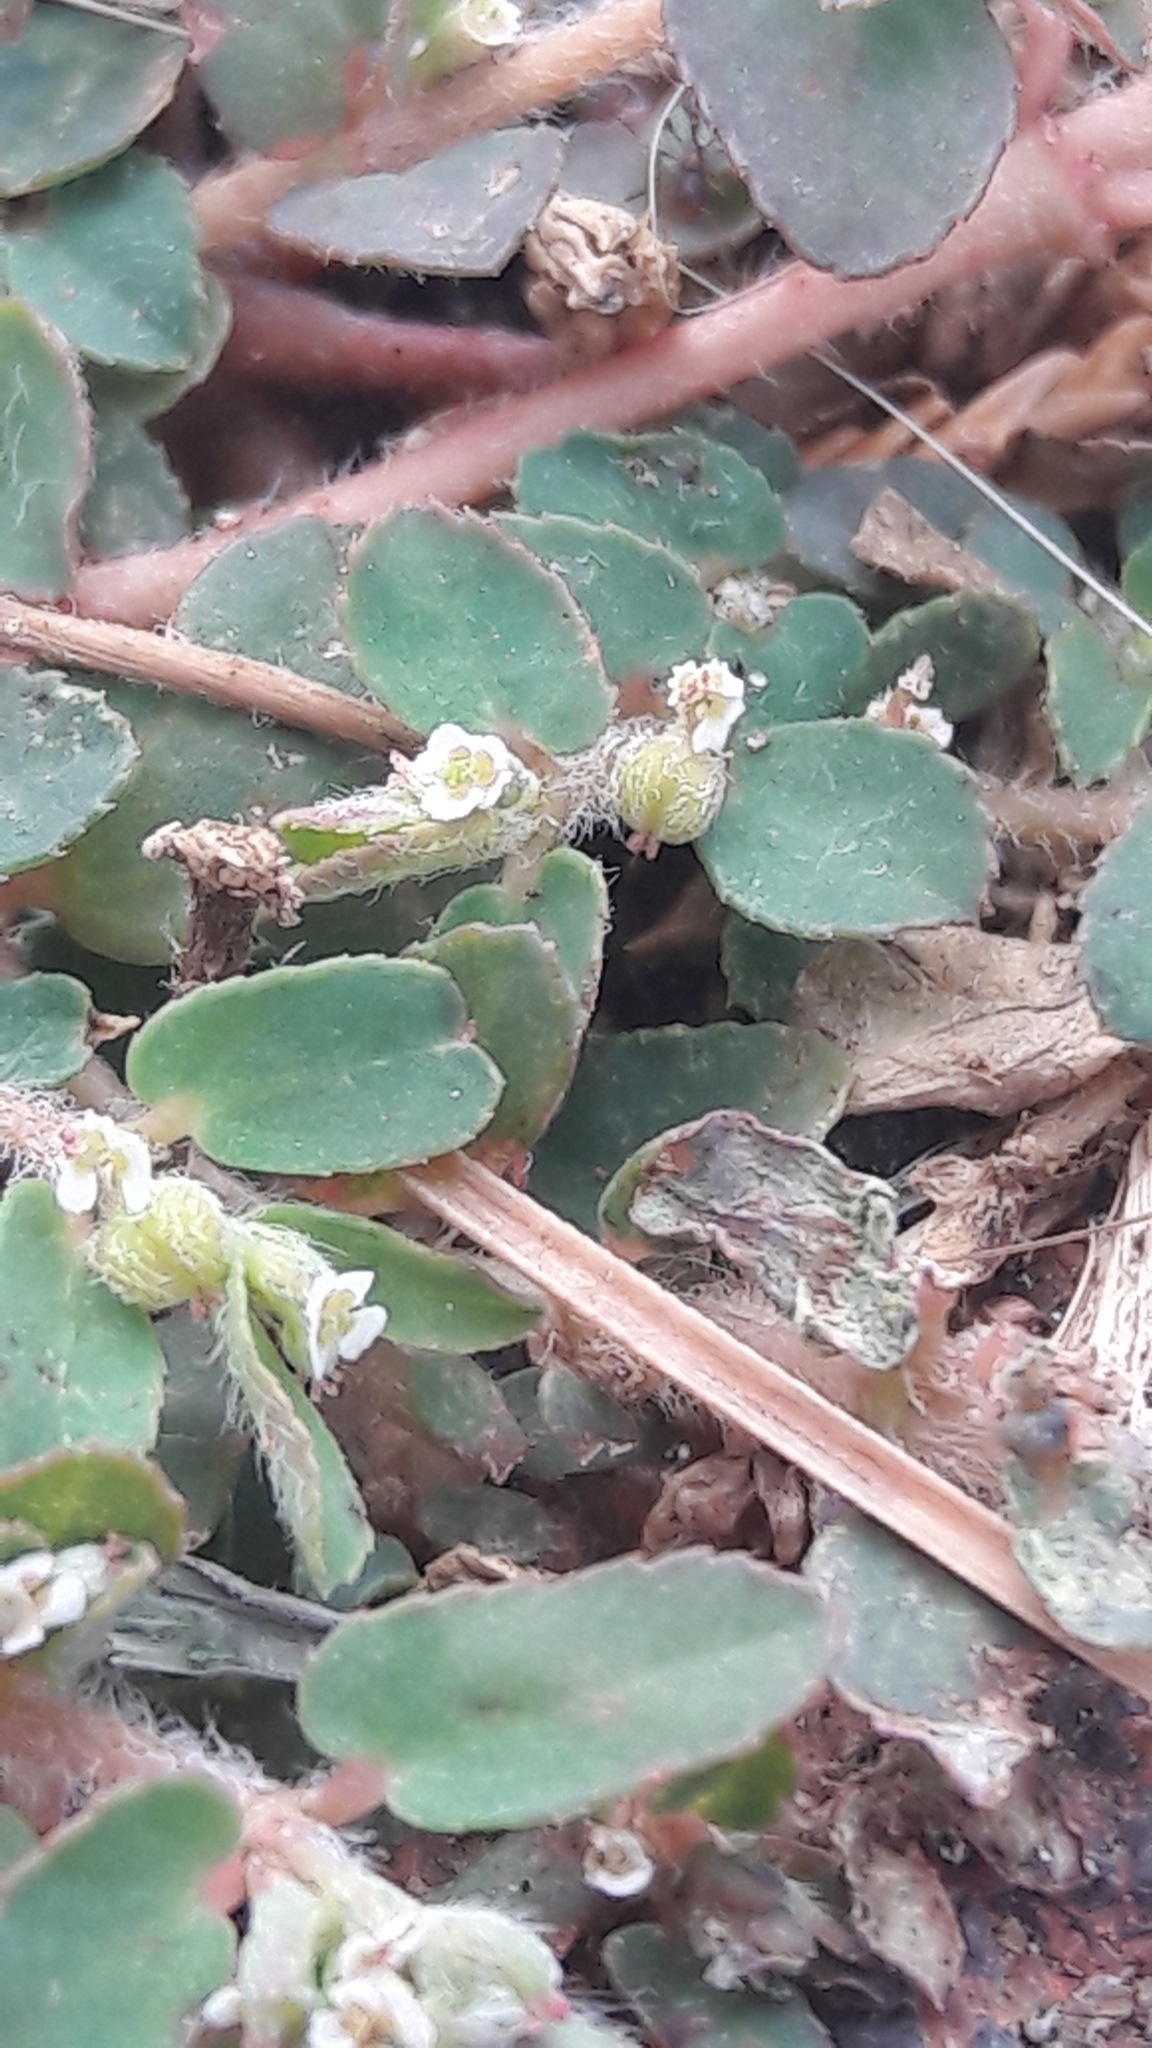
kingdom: Plantae
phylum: Tracheophyta
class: Magnoliopsida
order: Malpighiales
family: Euphorbiaceae
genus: Euphorbia
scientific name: Euphorbia maculata
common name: Spotted spurge
